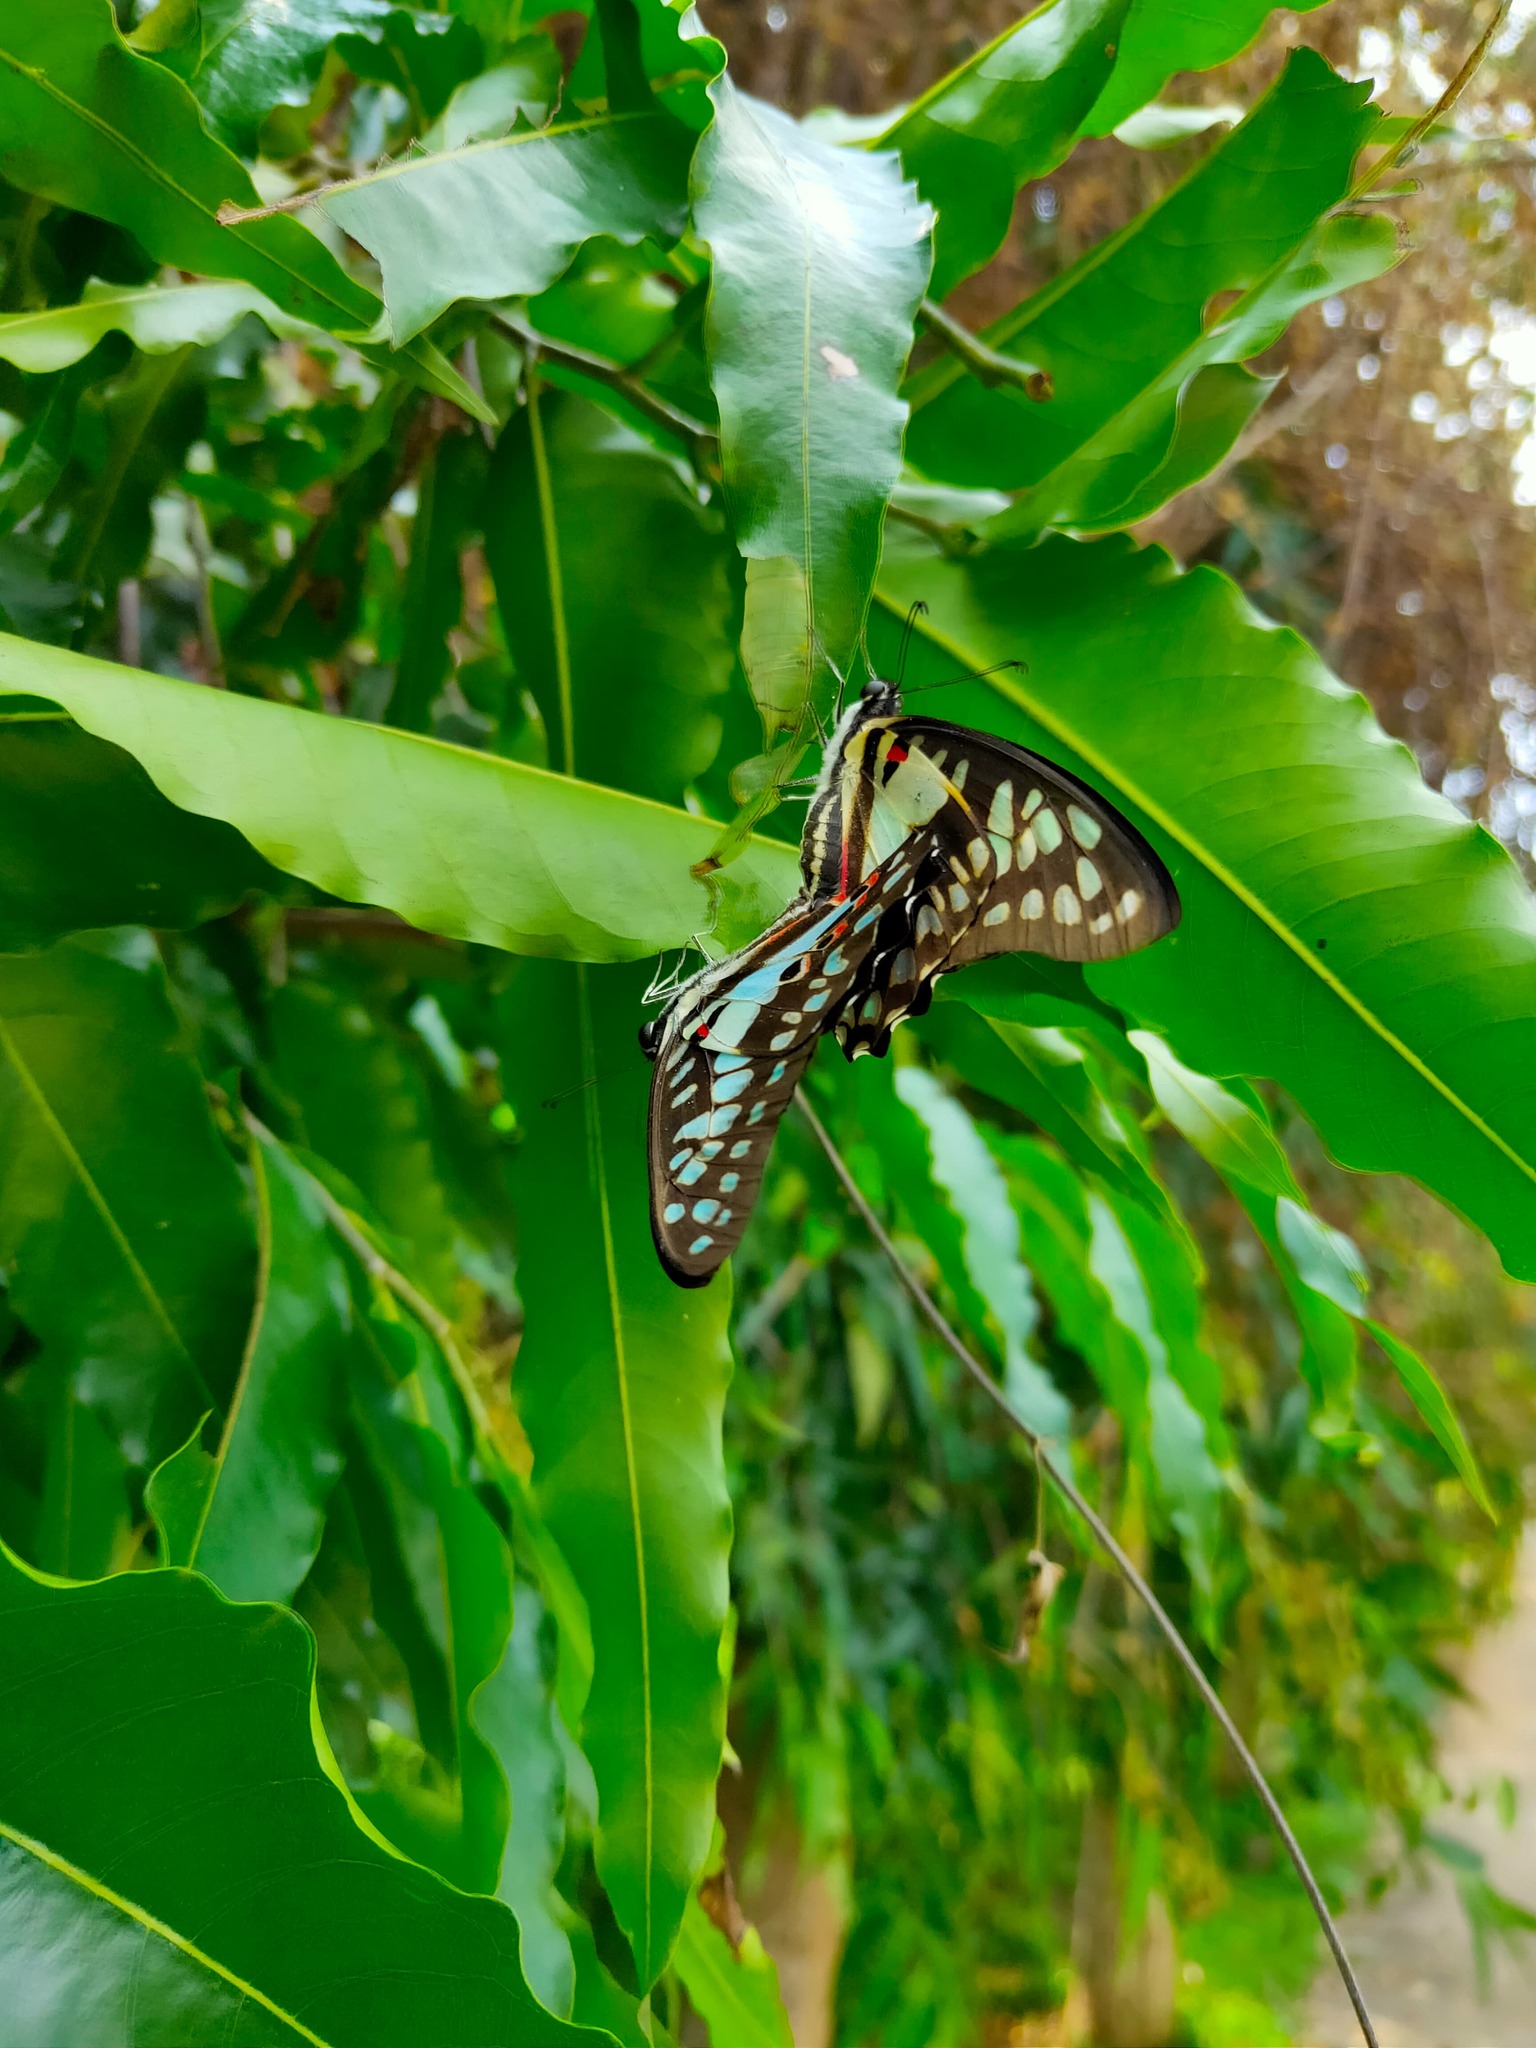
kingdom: Animalia
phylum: Arthropoda
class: Insecta
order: Lepidoptera
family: Papilionidae
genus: Graphium
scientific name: Graphium doson
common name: Common jay
